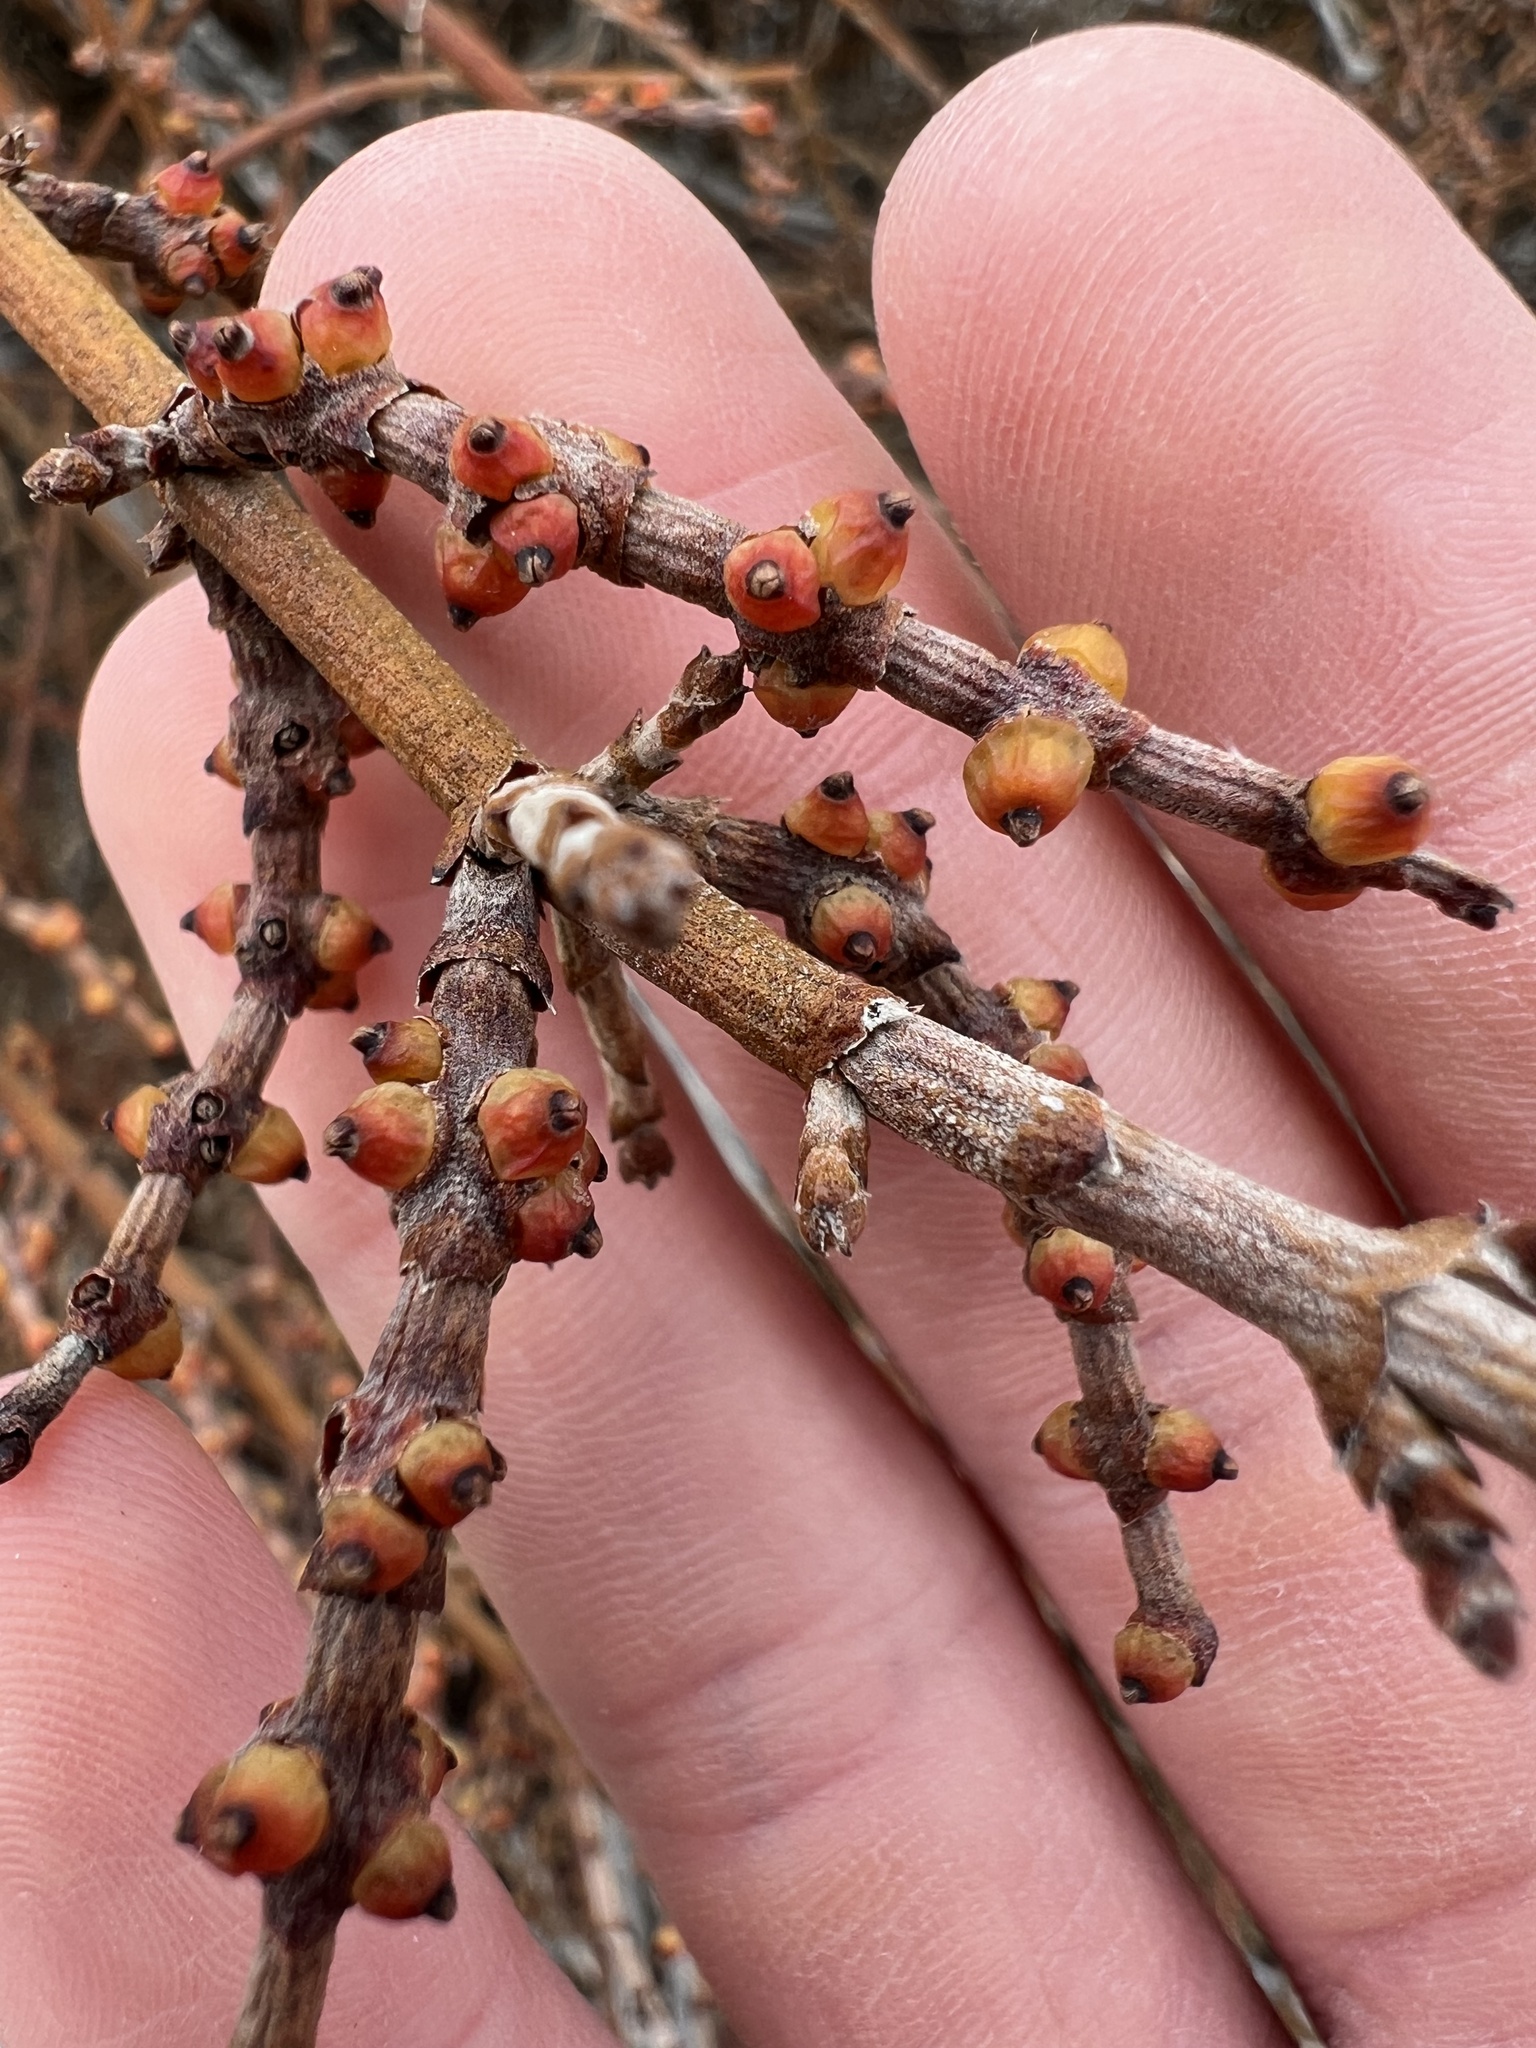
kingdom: Plantae
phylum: Tracheophyta
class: Magnoliopsida
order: Santalales
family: Viscaceae
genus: Phoradendron
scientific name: Phoradendron californicum
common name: Acacia mistletoe
